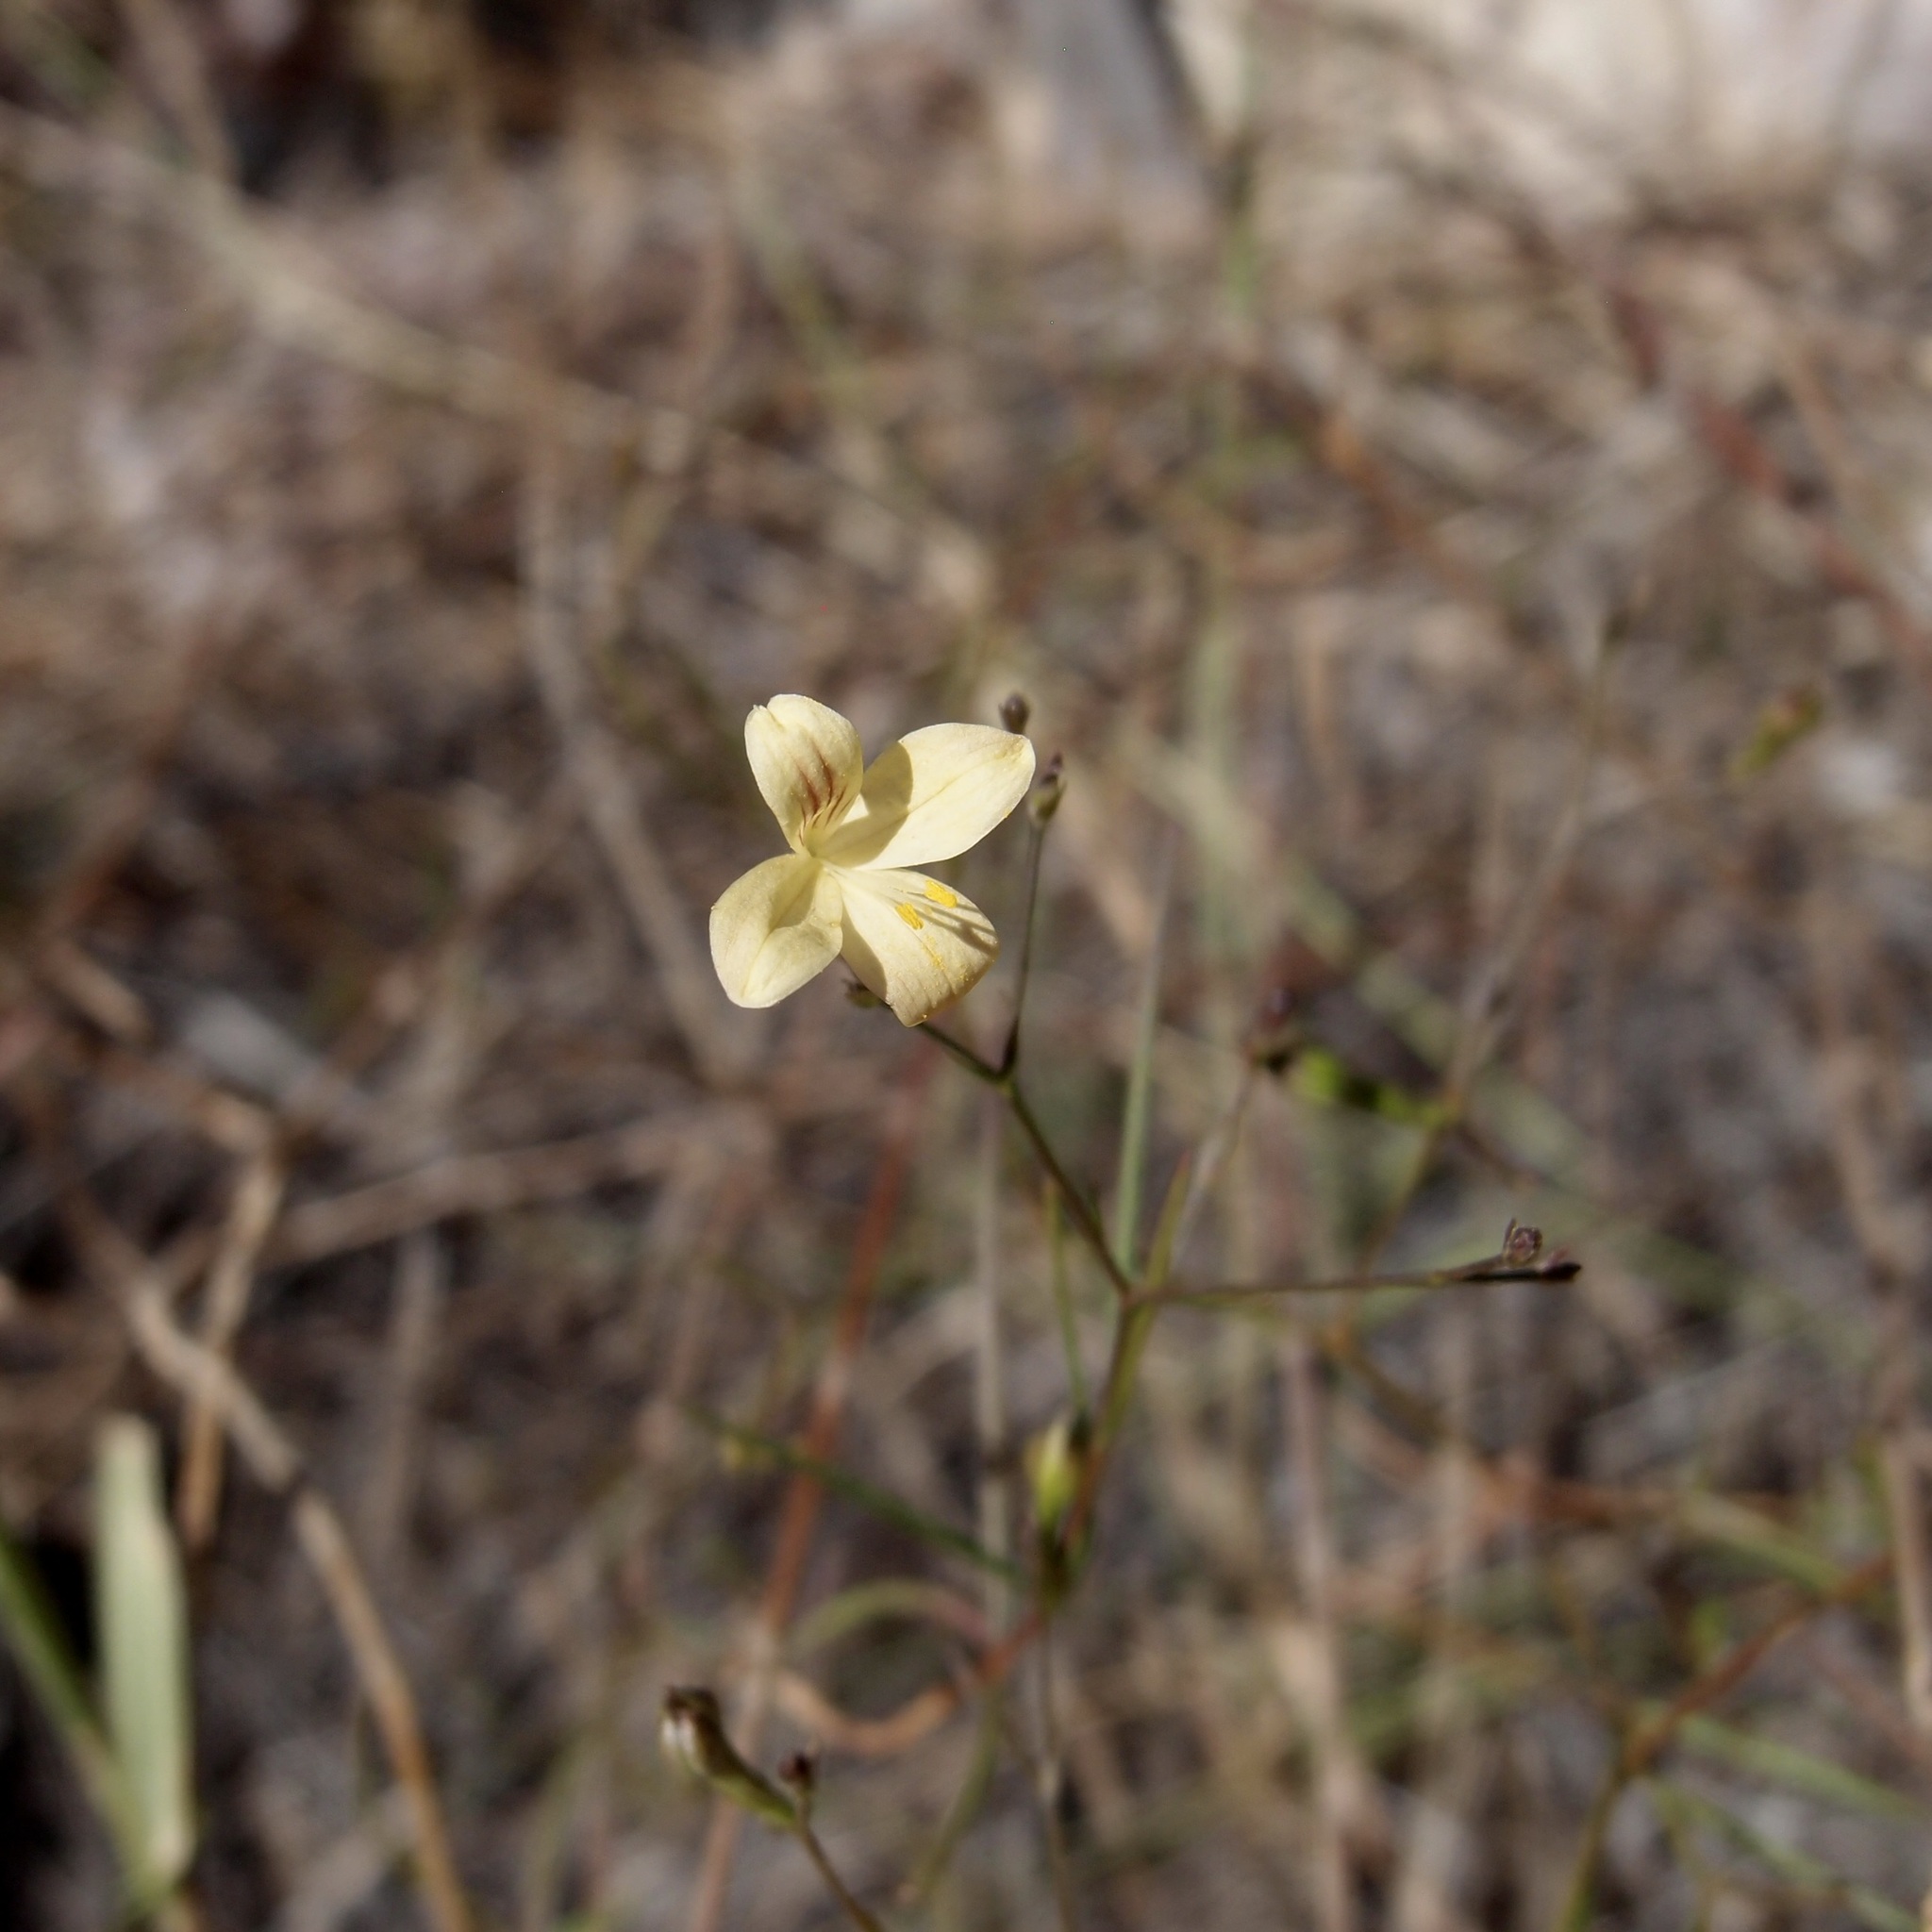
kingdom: Plantae
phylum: Tracheophyta
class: Magnoliopsida
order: Lamiales
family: Acanthaceae
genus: Carlowrightia
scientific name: Carlowrightia pectinata
